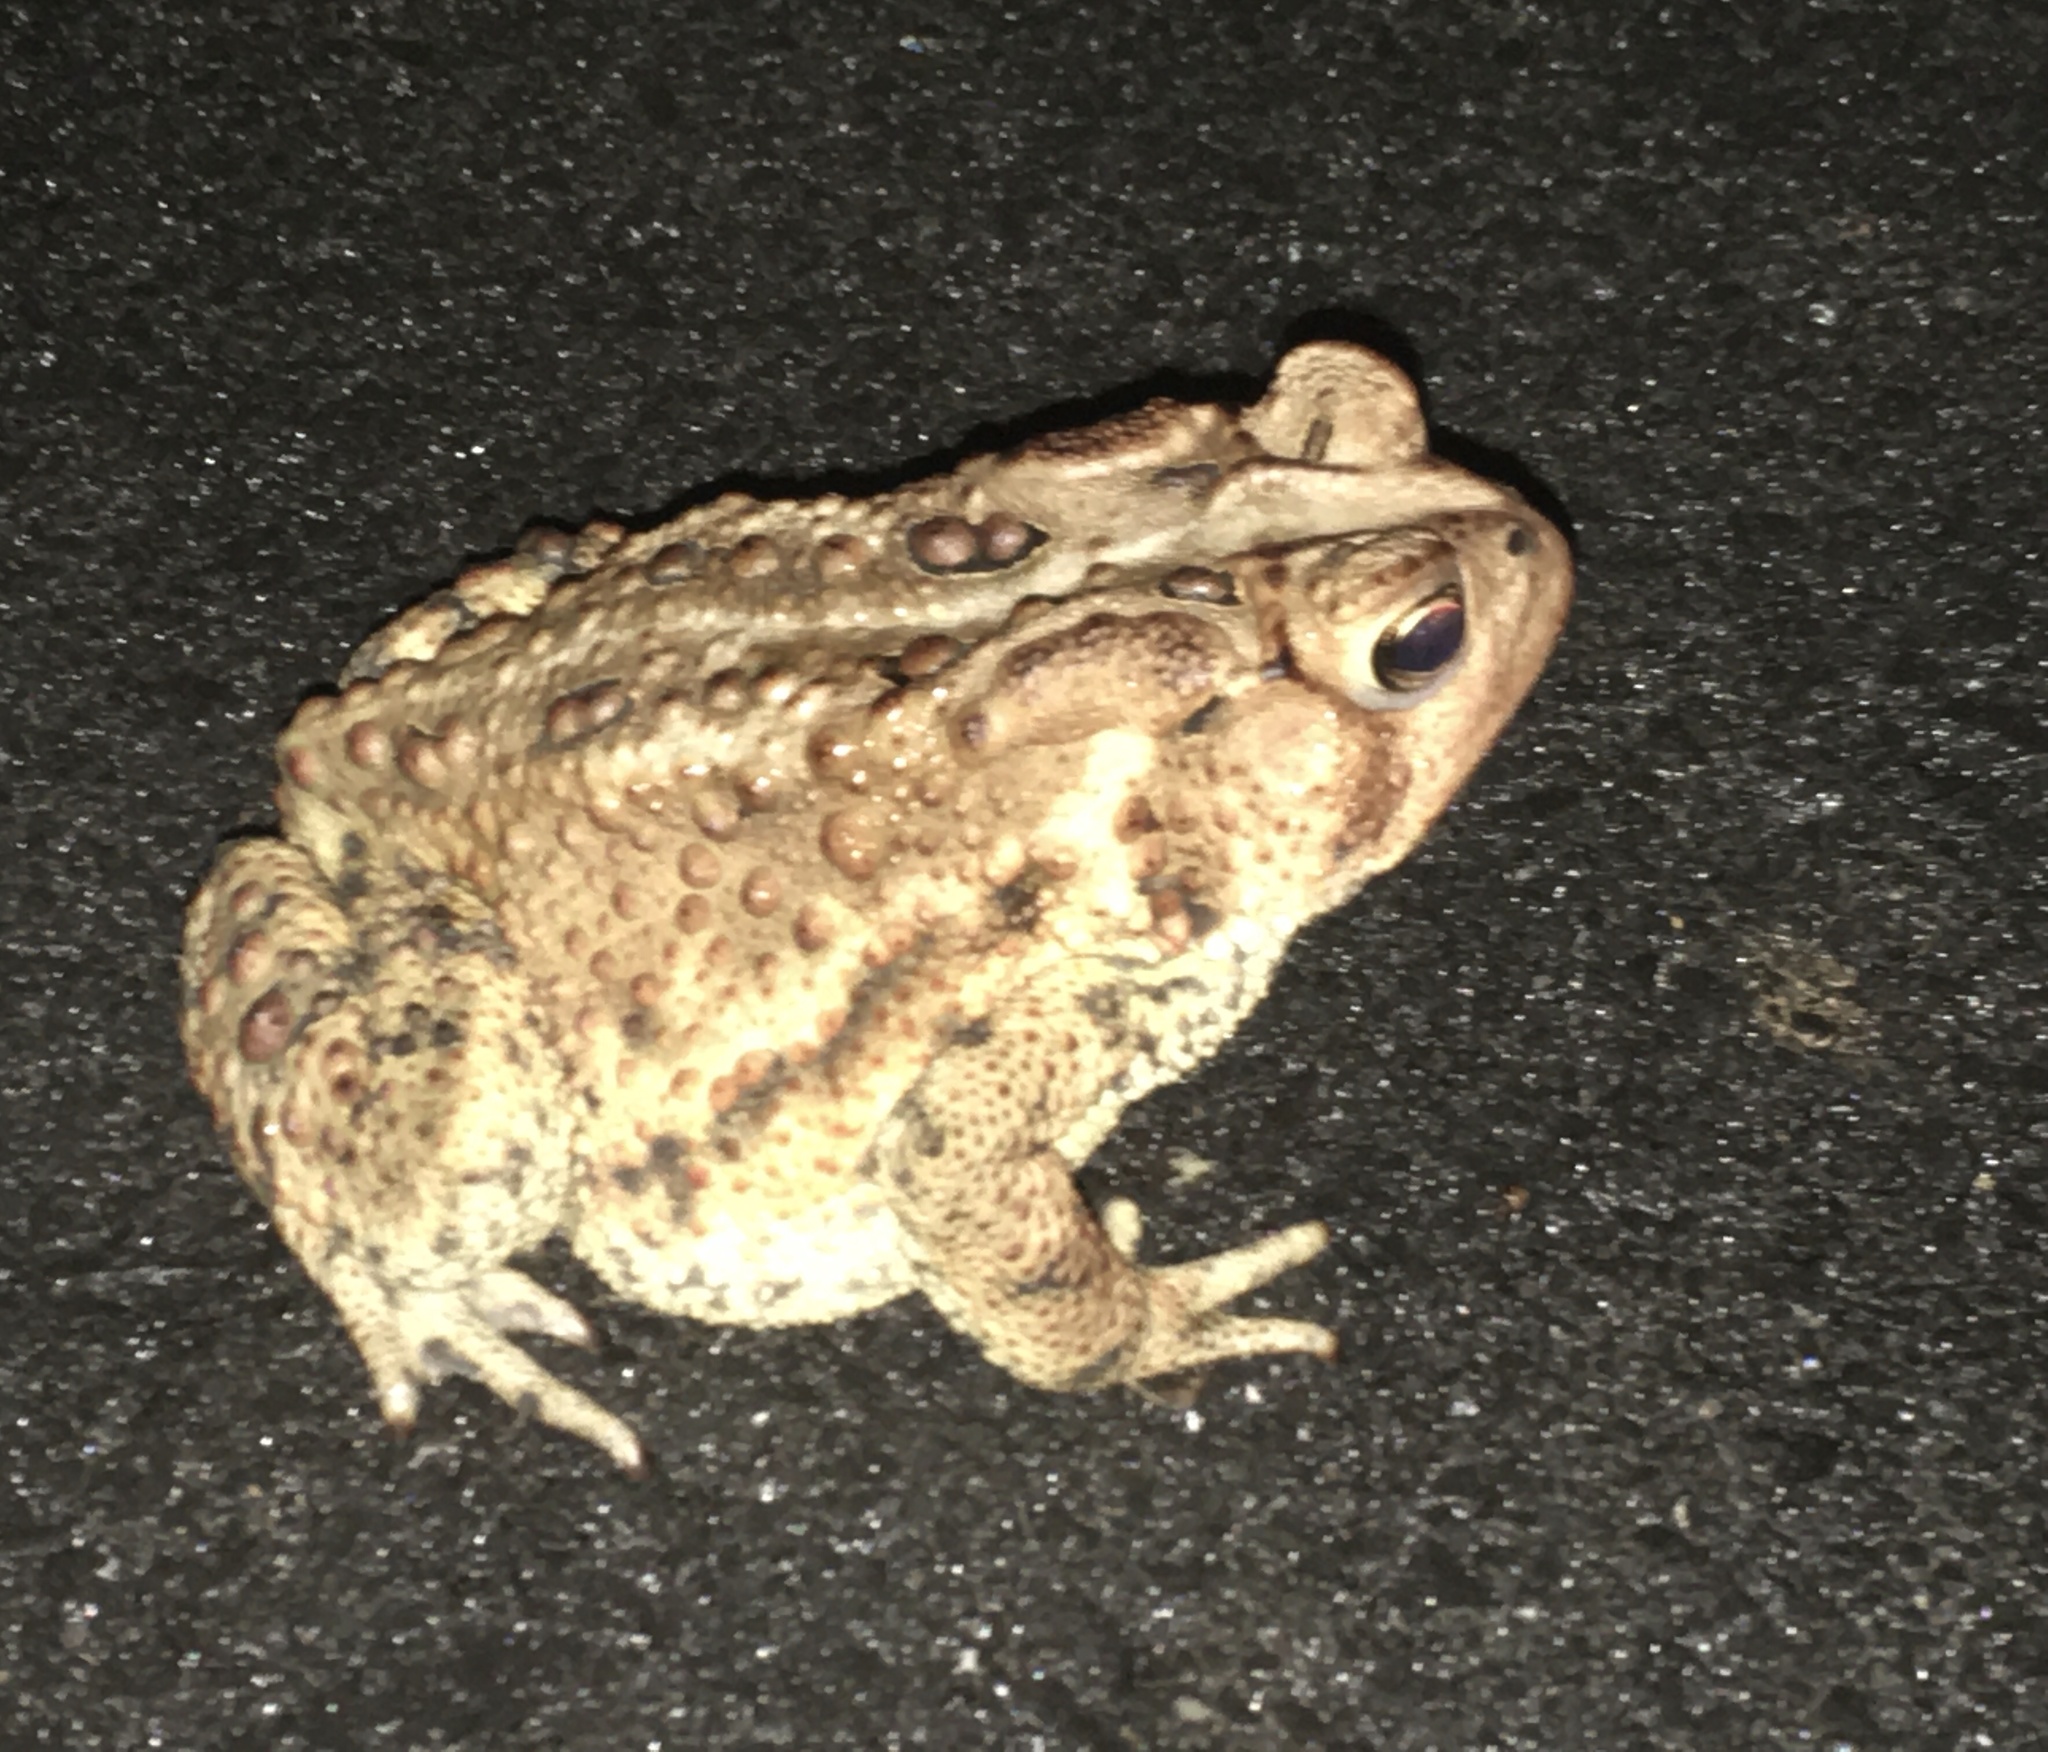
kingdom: Animalia
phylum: Chordata
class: Amphibia
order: Anura
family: Bufonidae
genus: Anaxyrus
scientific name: Anaxyrus americanus
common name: American toad
